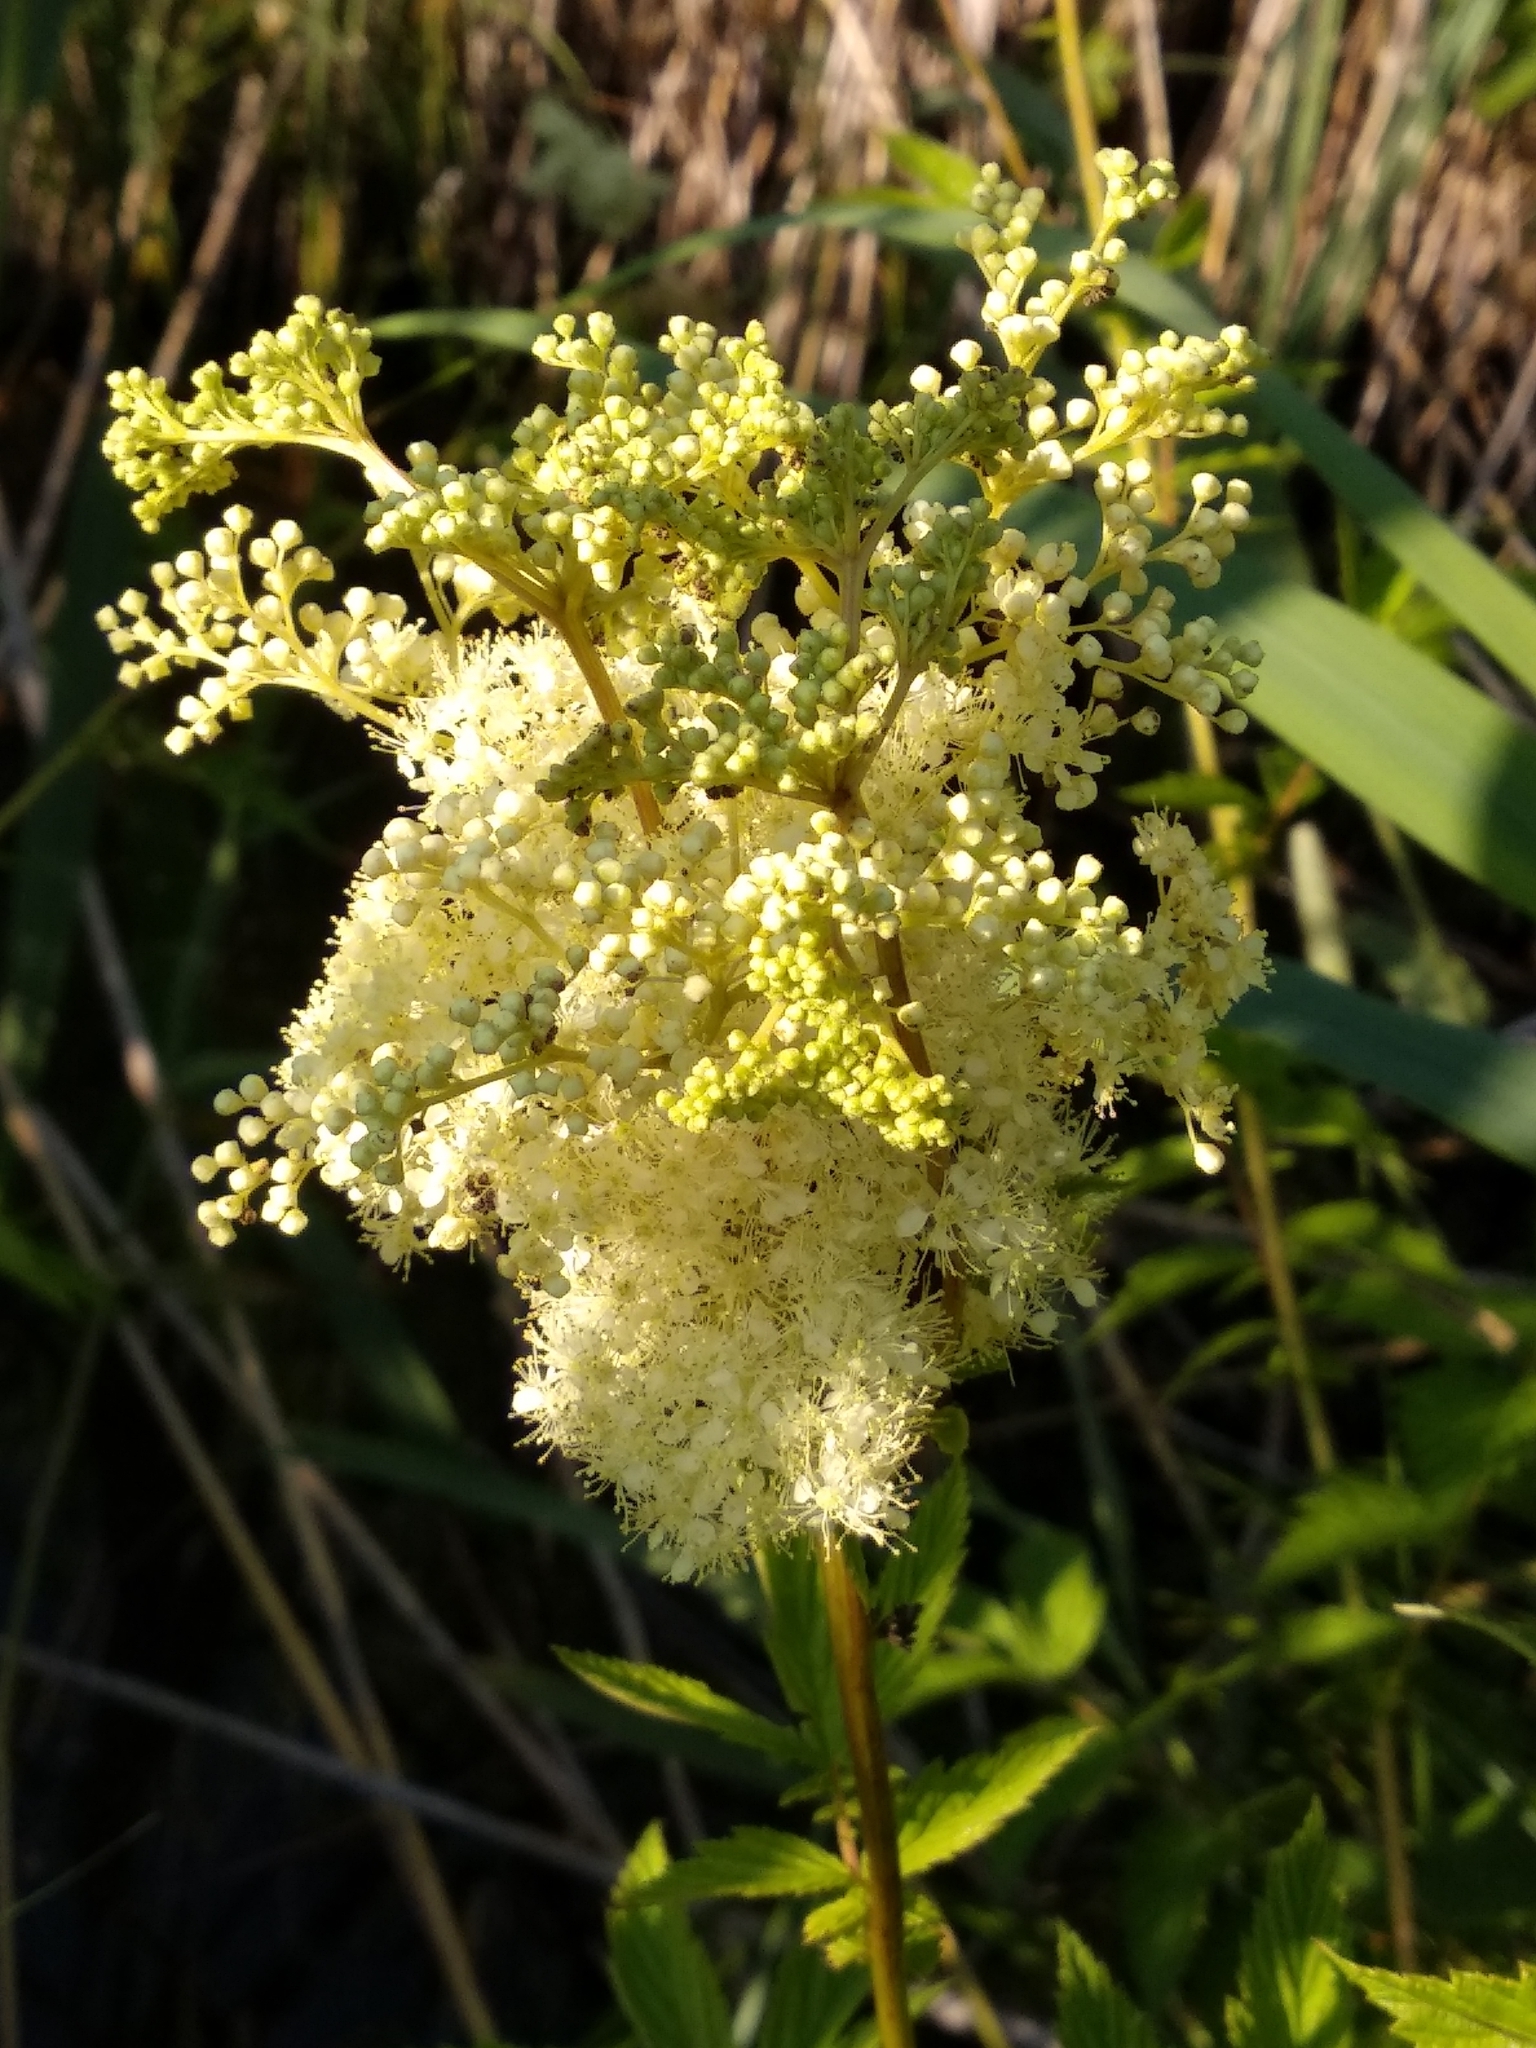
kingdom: Plantae
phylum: Tracheophyta
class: Magnoliopsida
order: Rosales
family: Rosaceae
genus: Filipendula
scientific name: Filipendula ulmaria
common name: Meadowsweet
